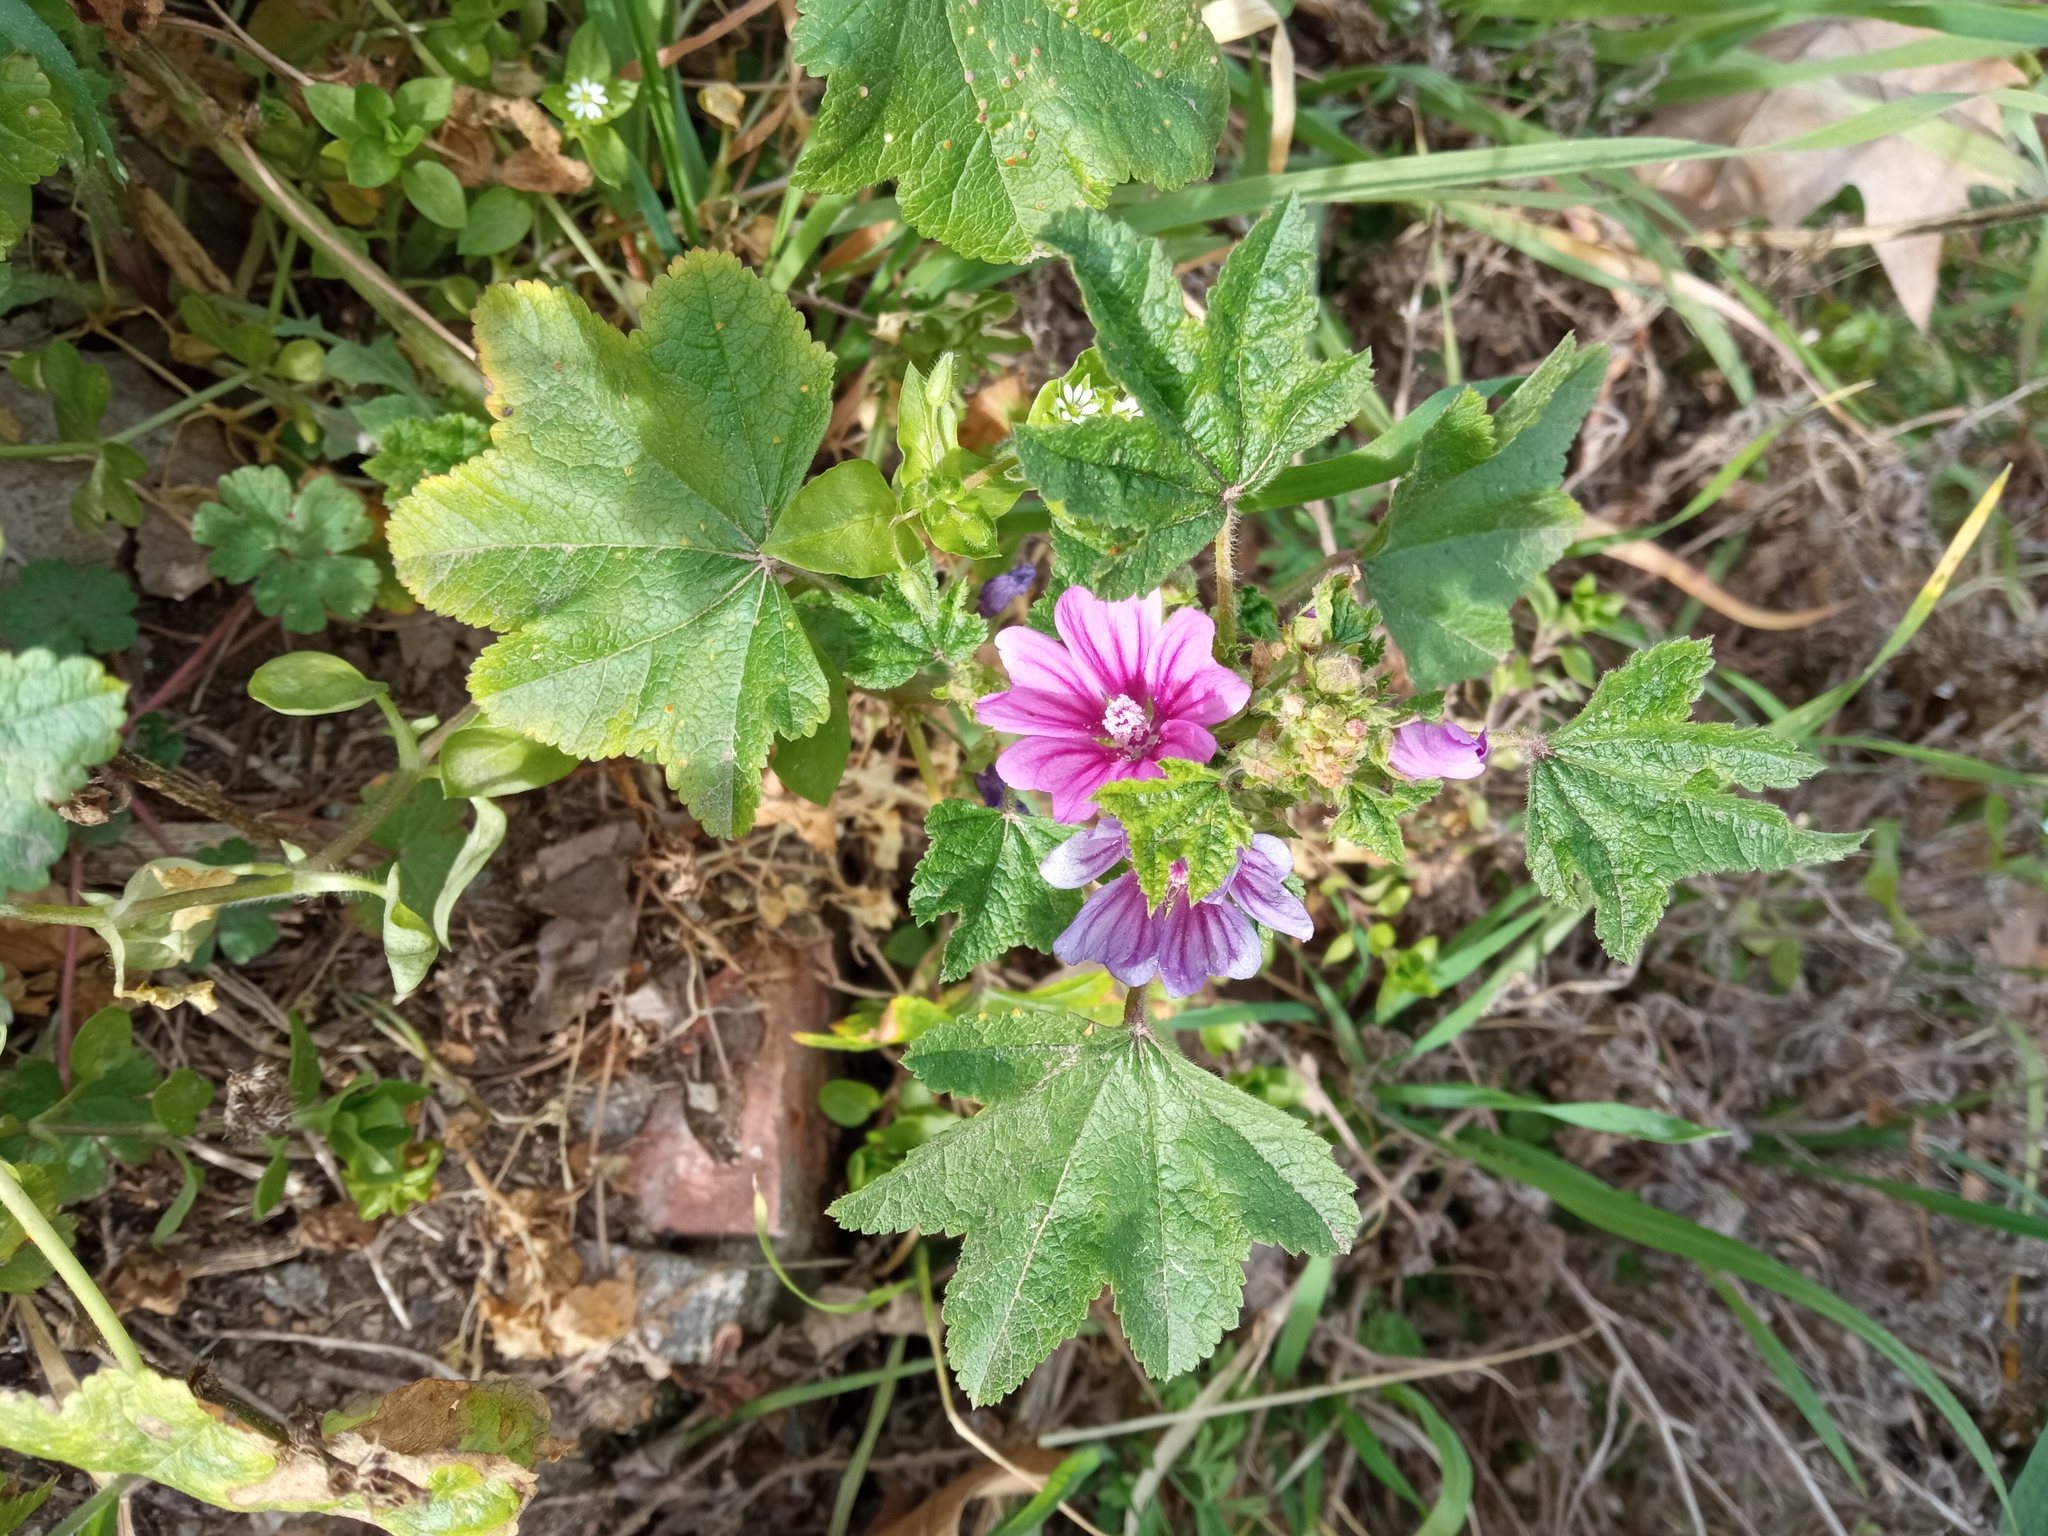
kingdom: Plantae
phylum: Tracheophyta
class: Magnoliopsida
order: Malvales
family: Malvaceae
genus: Malva
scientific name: Malva sylvestris
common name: Common mallow
